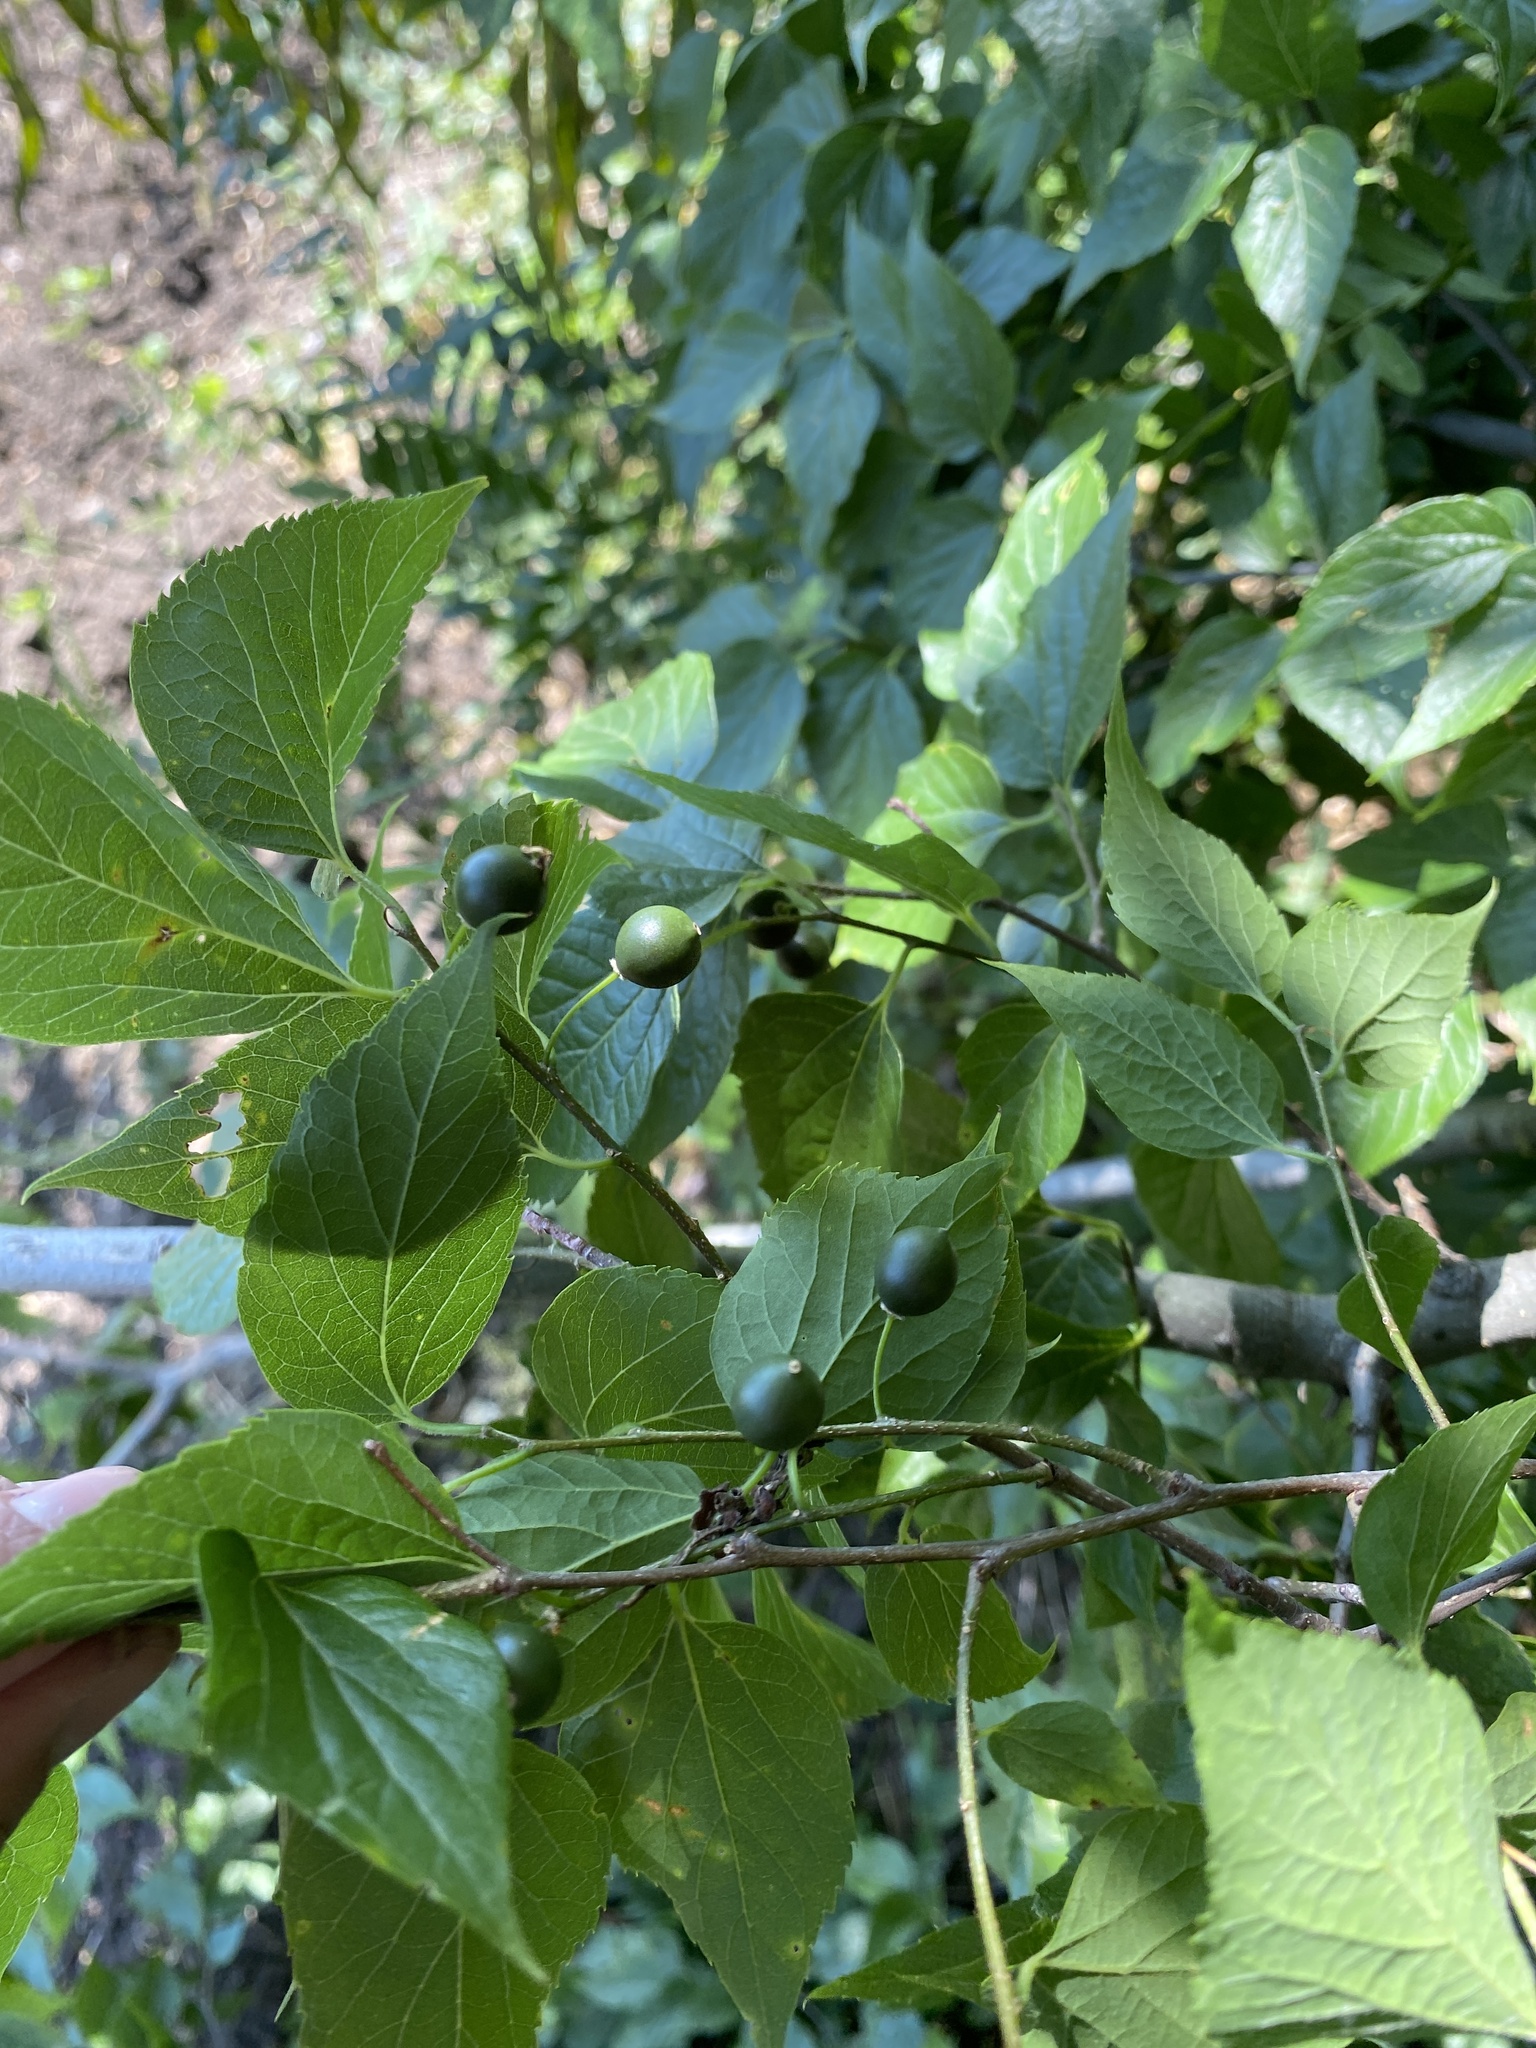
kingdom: Plantae
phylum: Tracheophyta
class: Magnoliopsida
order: Rosales
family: Cannabaceae
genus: Celtis
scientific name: Celtis occidentalis
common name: Common hackberry
